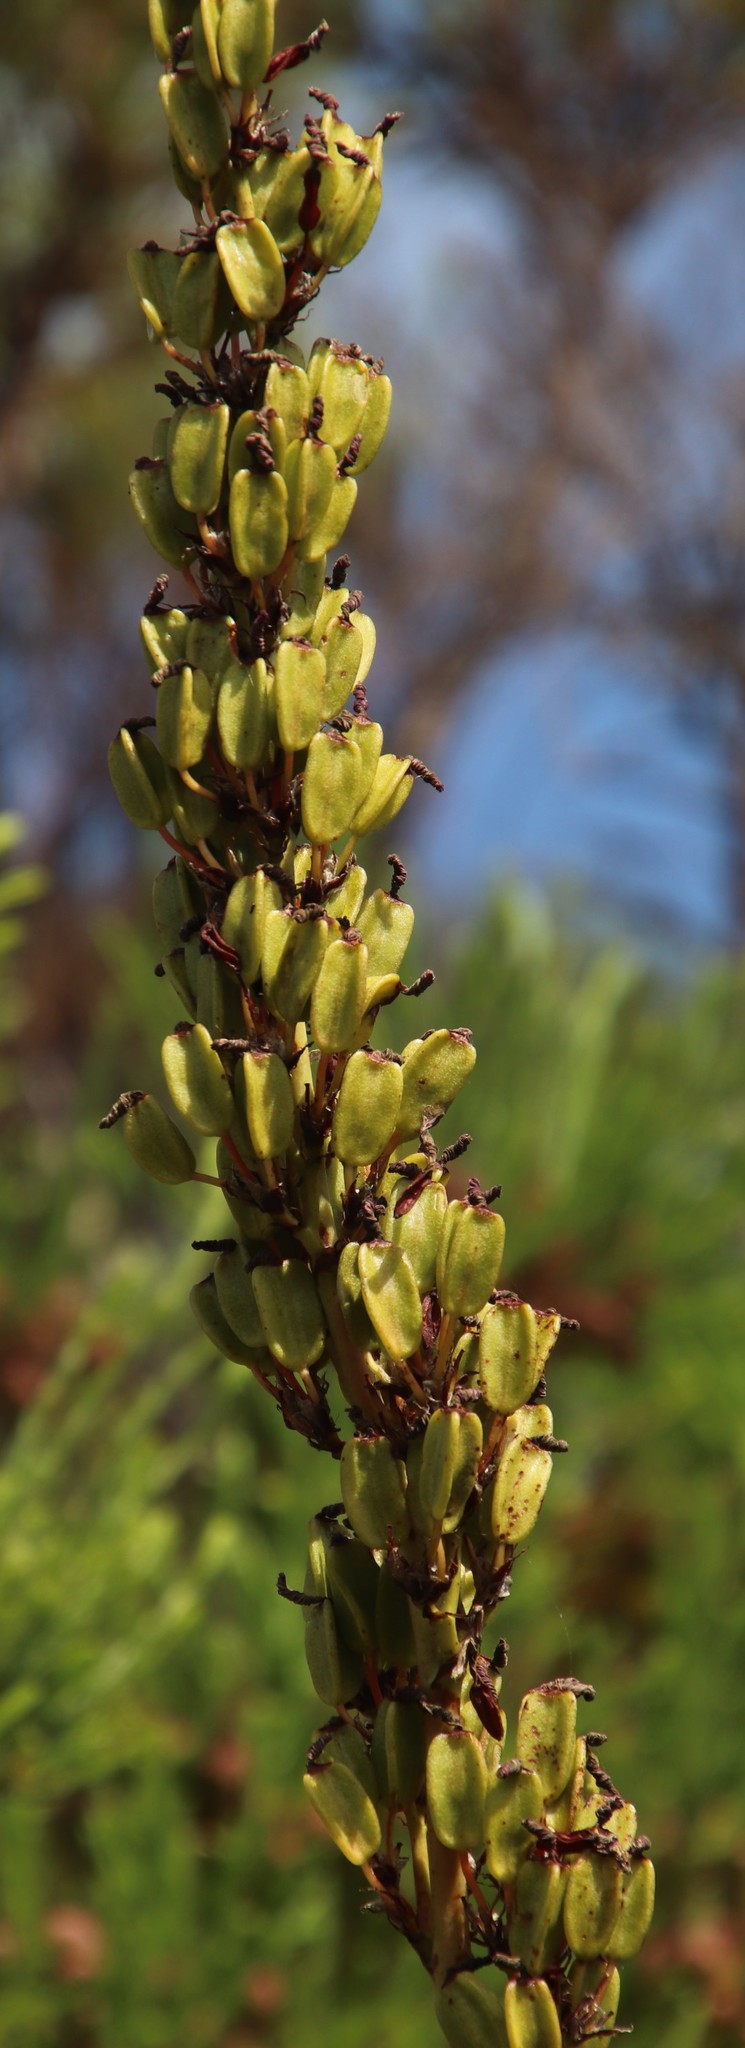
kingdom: Plantae
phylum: Tracheophyta
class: Liliopsida
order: Asparagales
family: Iridaceae
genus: Aristea
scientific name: Aristea capitata
